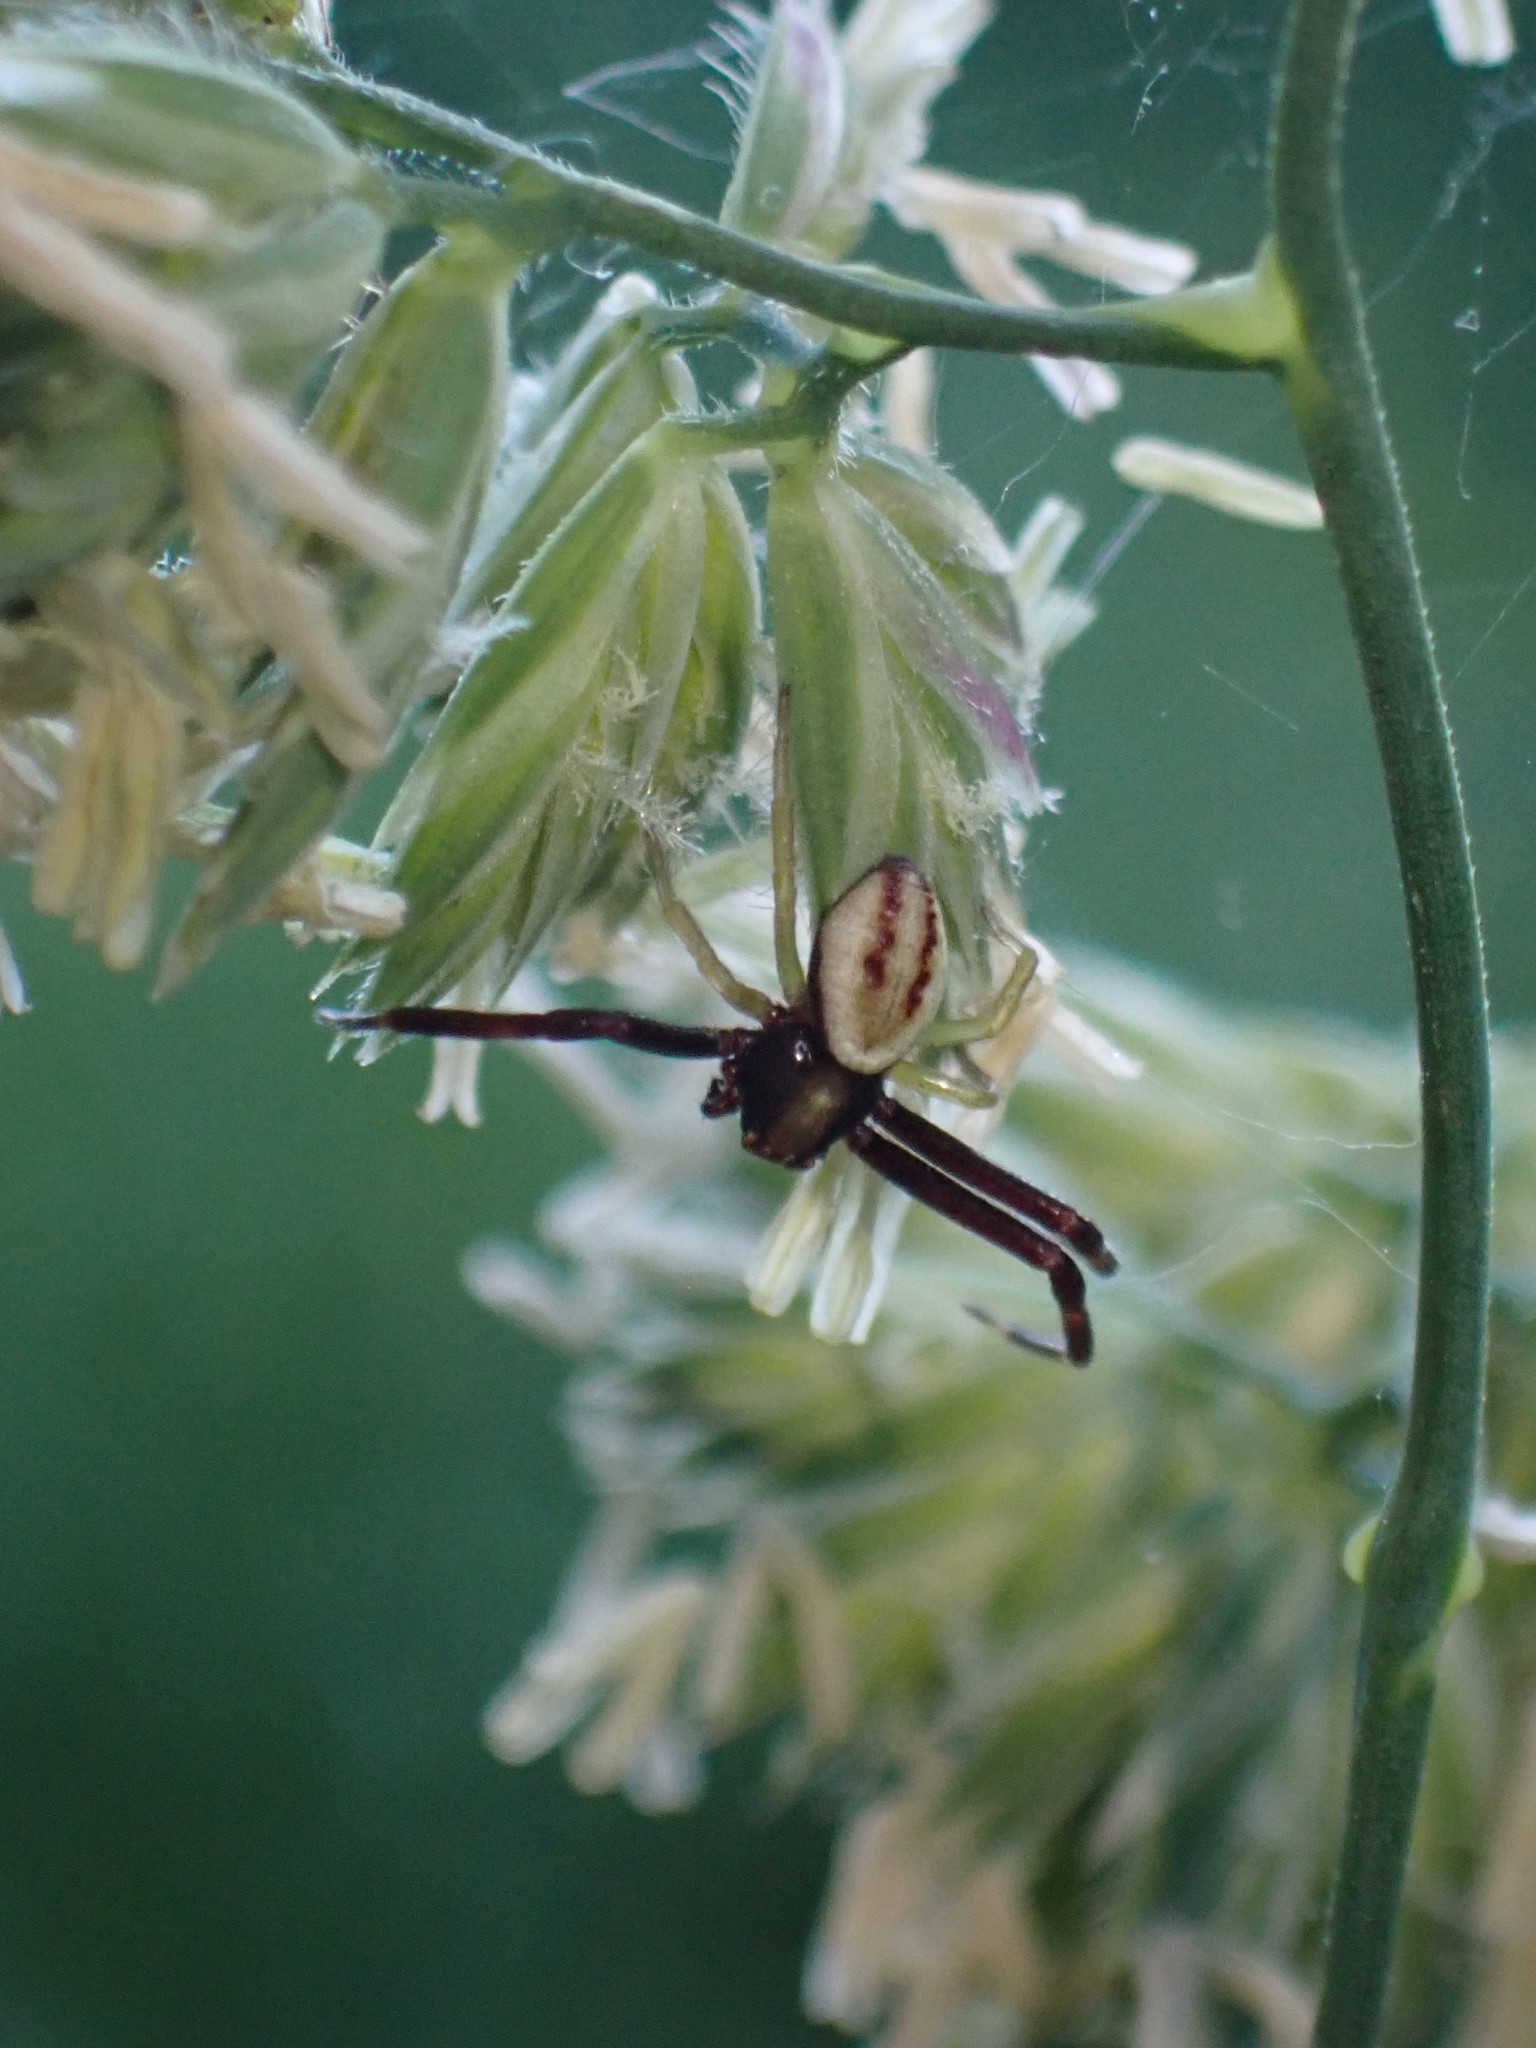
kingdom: Animalia
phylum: Arthropoda
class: Arachnida
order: Araneae
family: Thomisidae
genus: Misumena
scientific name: Misumena vatia
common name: Goldenrod crab spider
